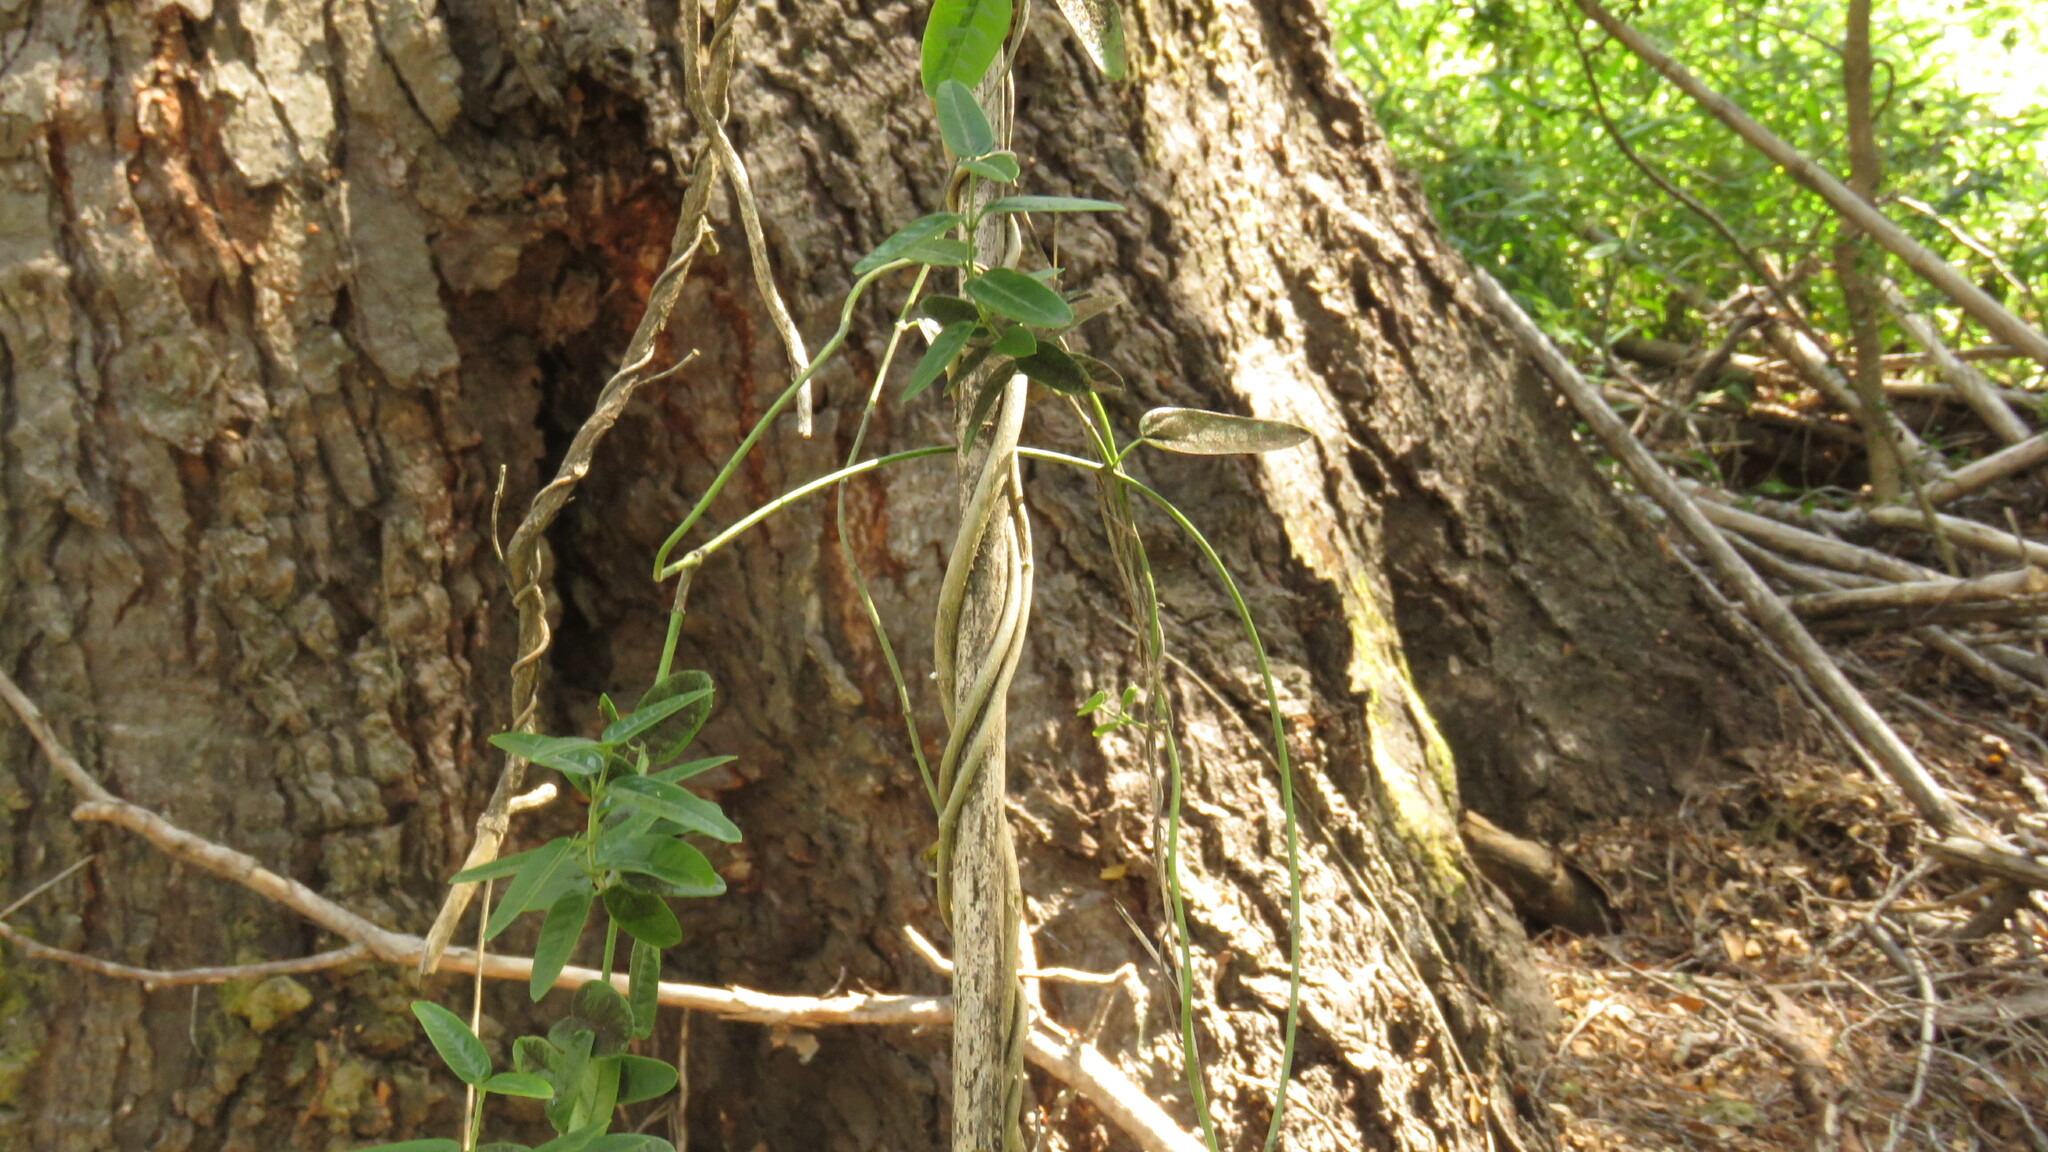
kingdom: Plantae
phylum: Tracheophyta
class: Magnoliopsida
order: Gentianales
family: Apocynaceae
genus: Diplolepis
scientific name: Diplolepis diemii
